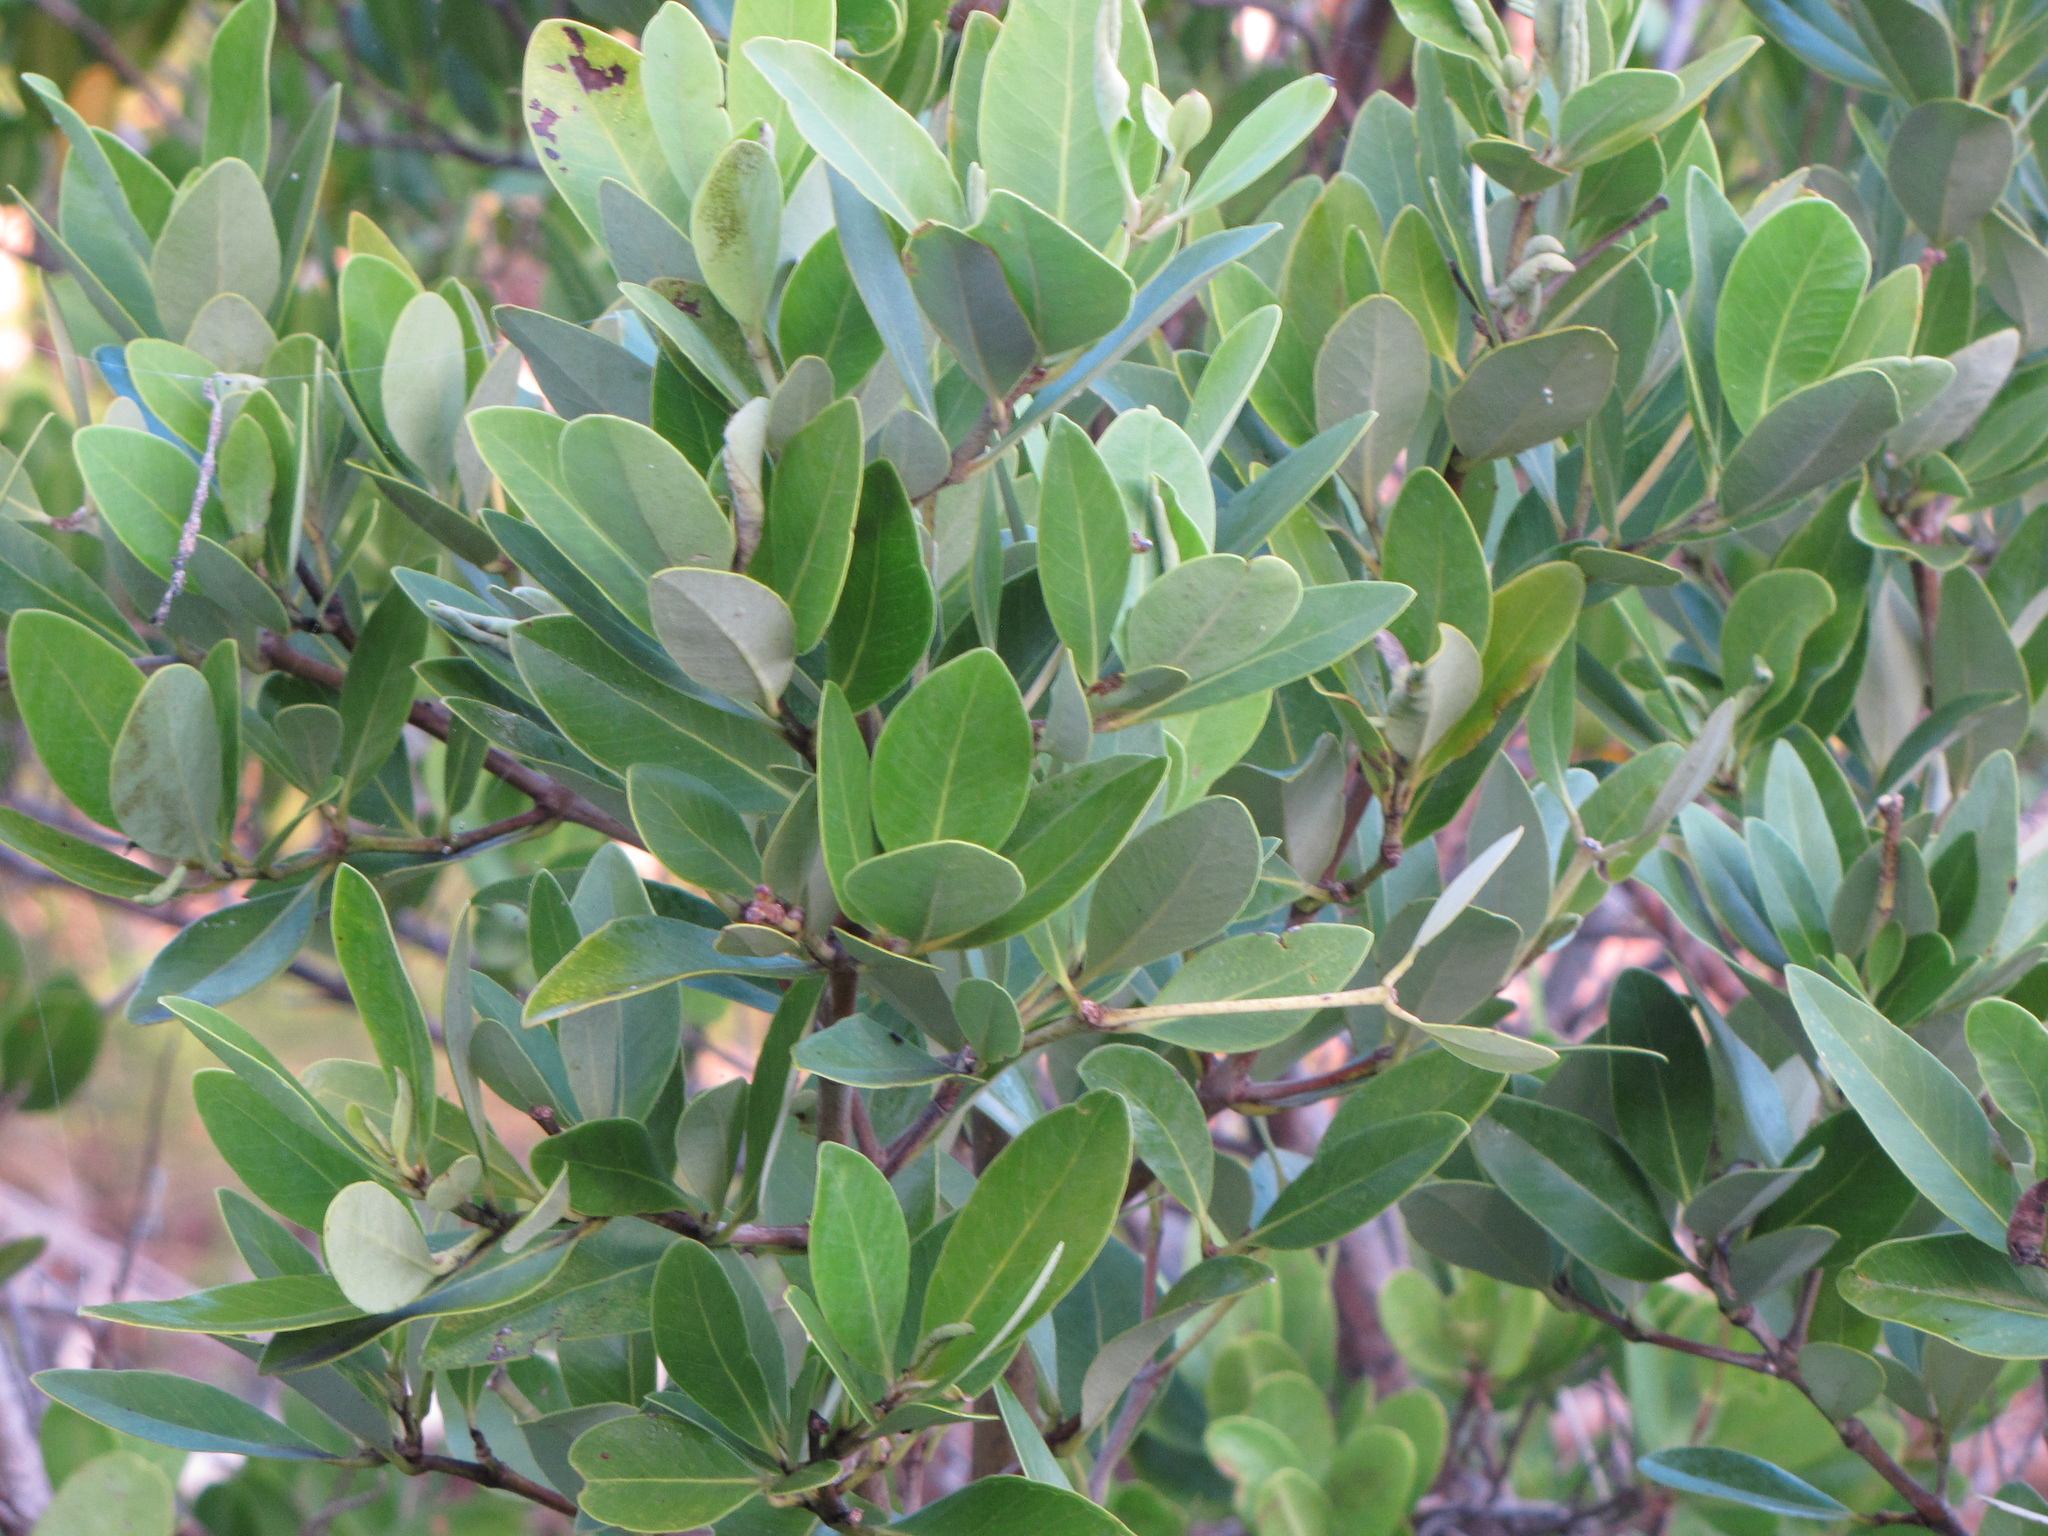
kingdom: Plantae
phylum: Tracheophyta
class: Magnoliopsida
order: Lamiales
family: Acanthaceae
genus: Avicennia
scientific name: Avicennia germinans
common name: Black mangrove
